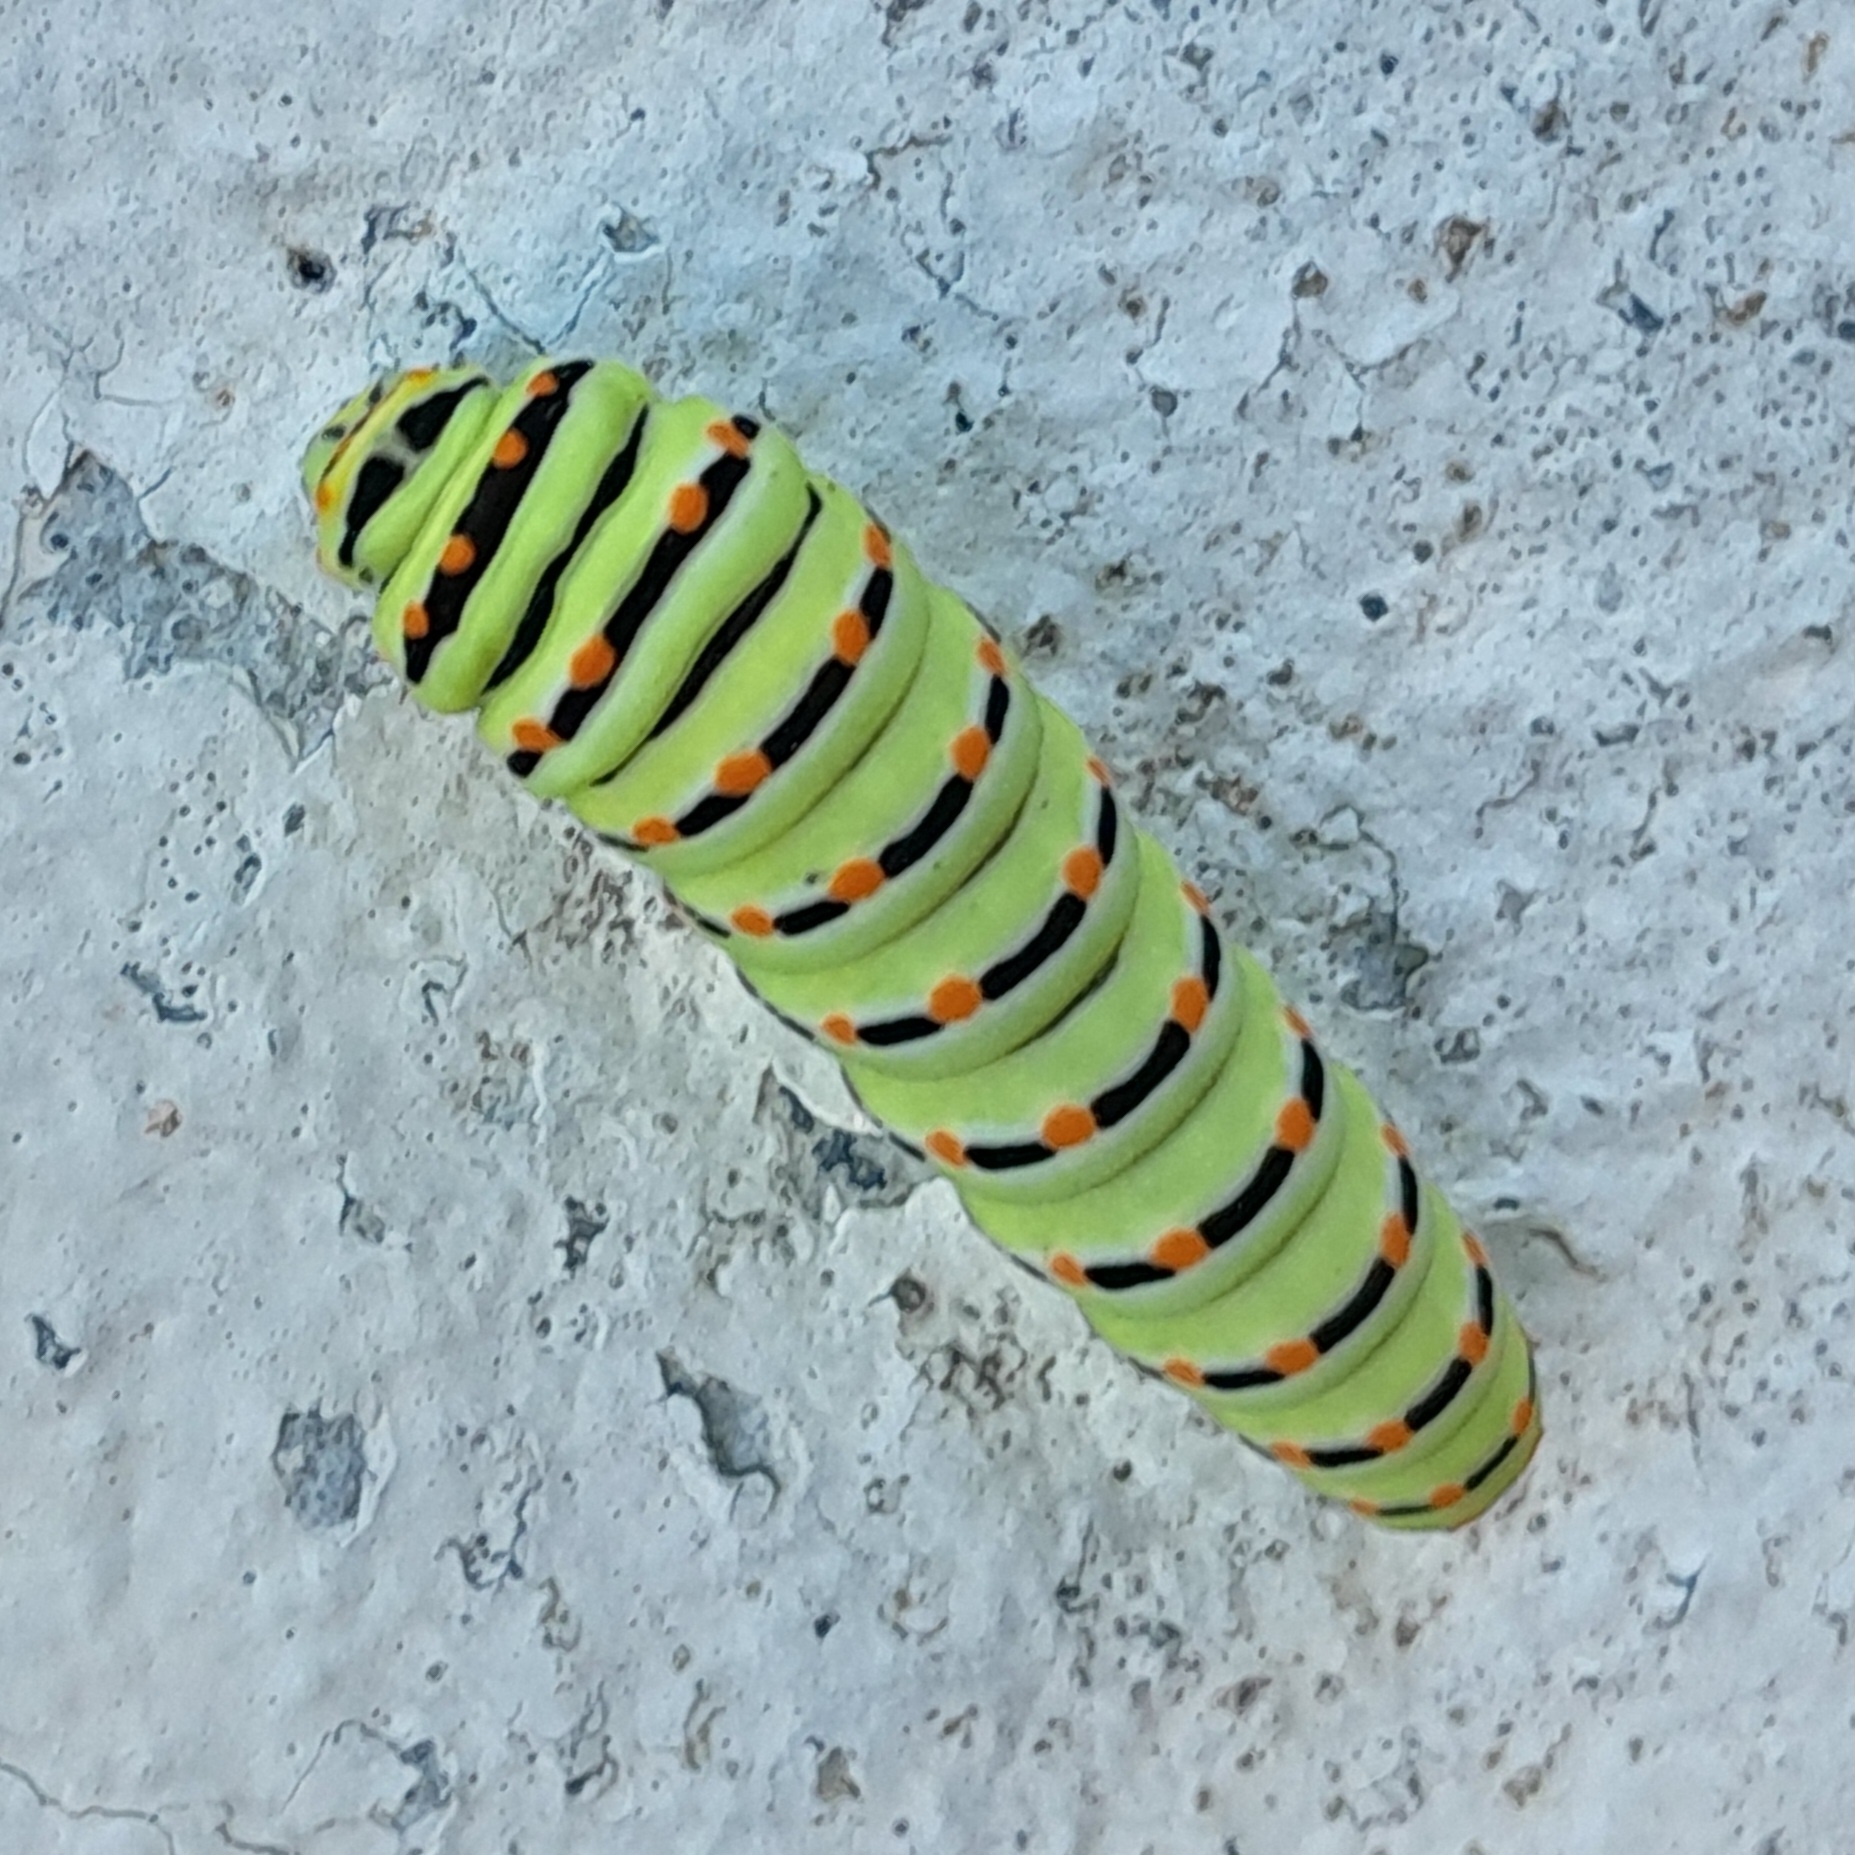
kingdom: Animalia
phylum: Arthropoda
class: Insecta
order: Lepidoptera
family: Papilionidae
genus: Papilio
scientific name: Papilio machaon
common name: Swallowtail
